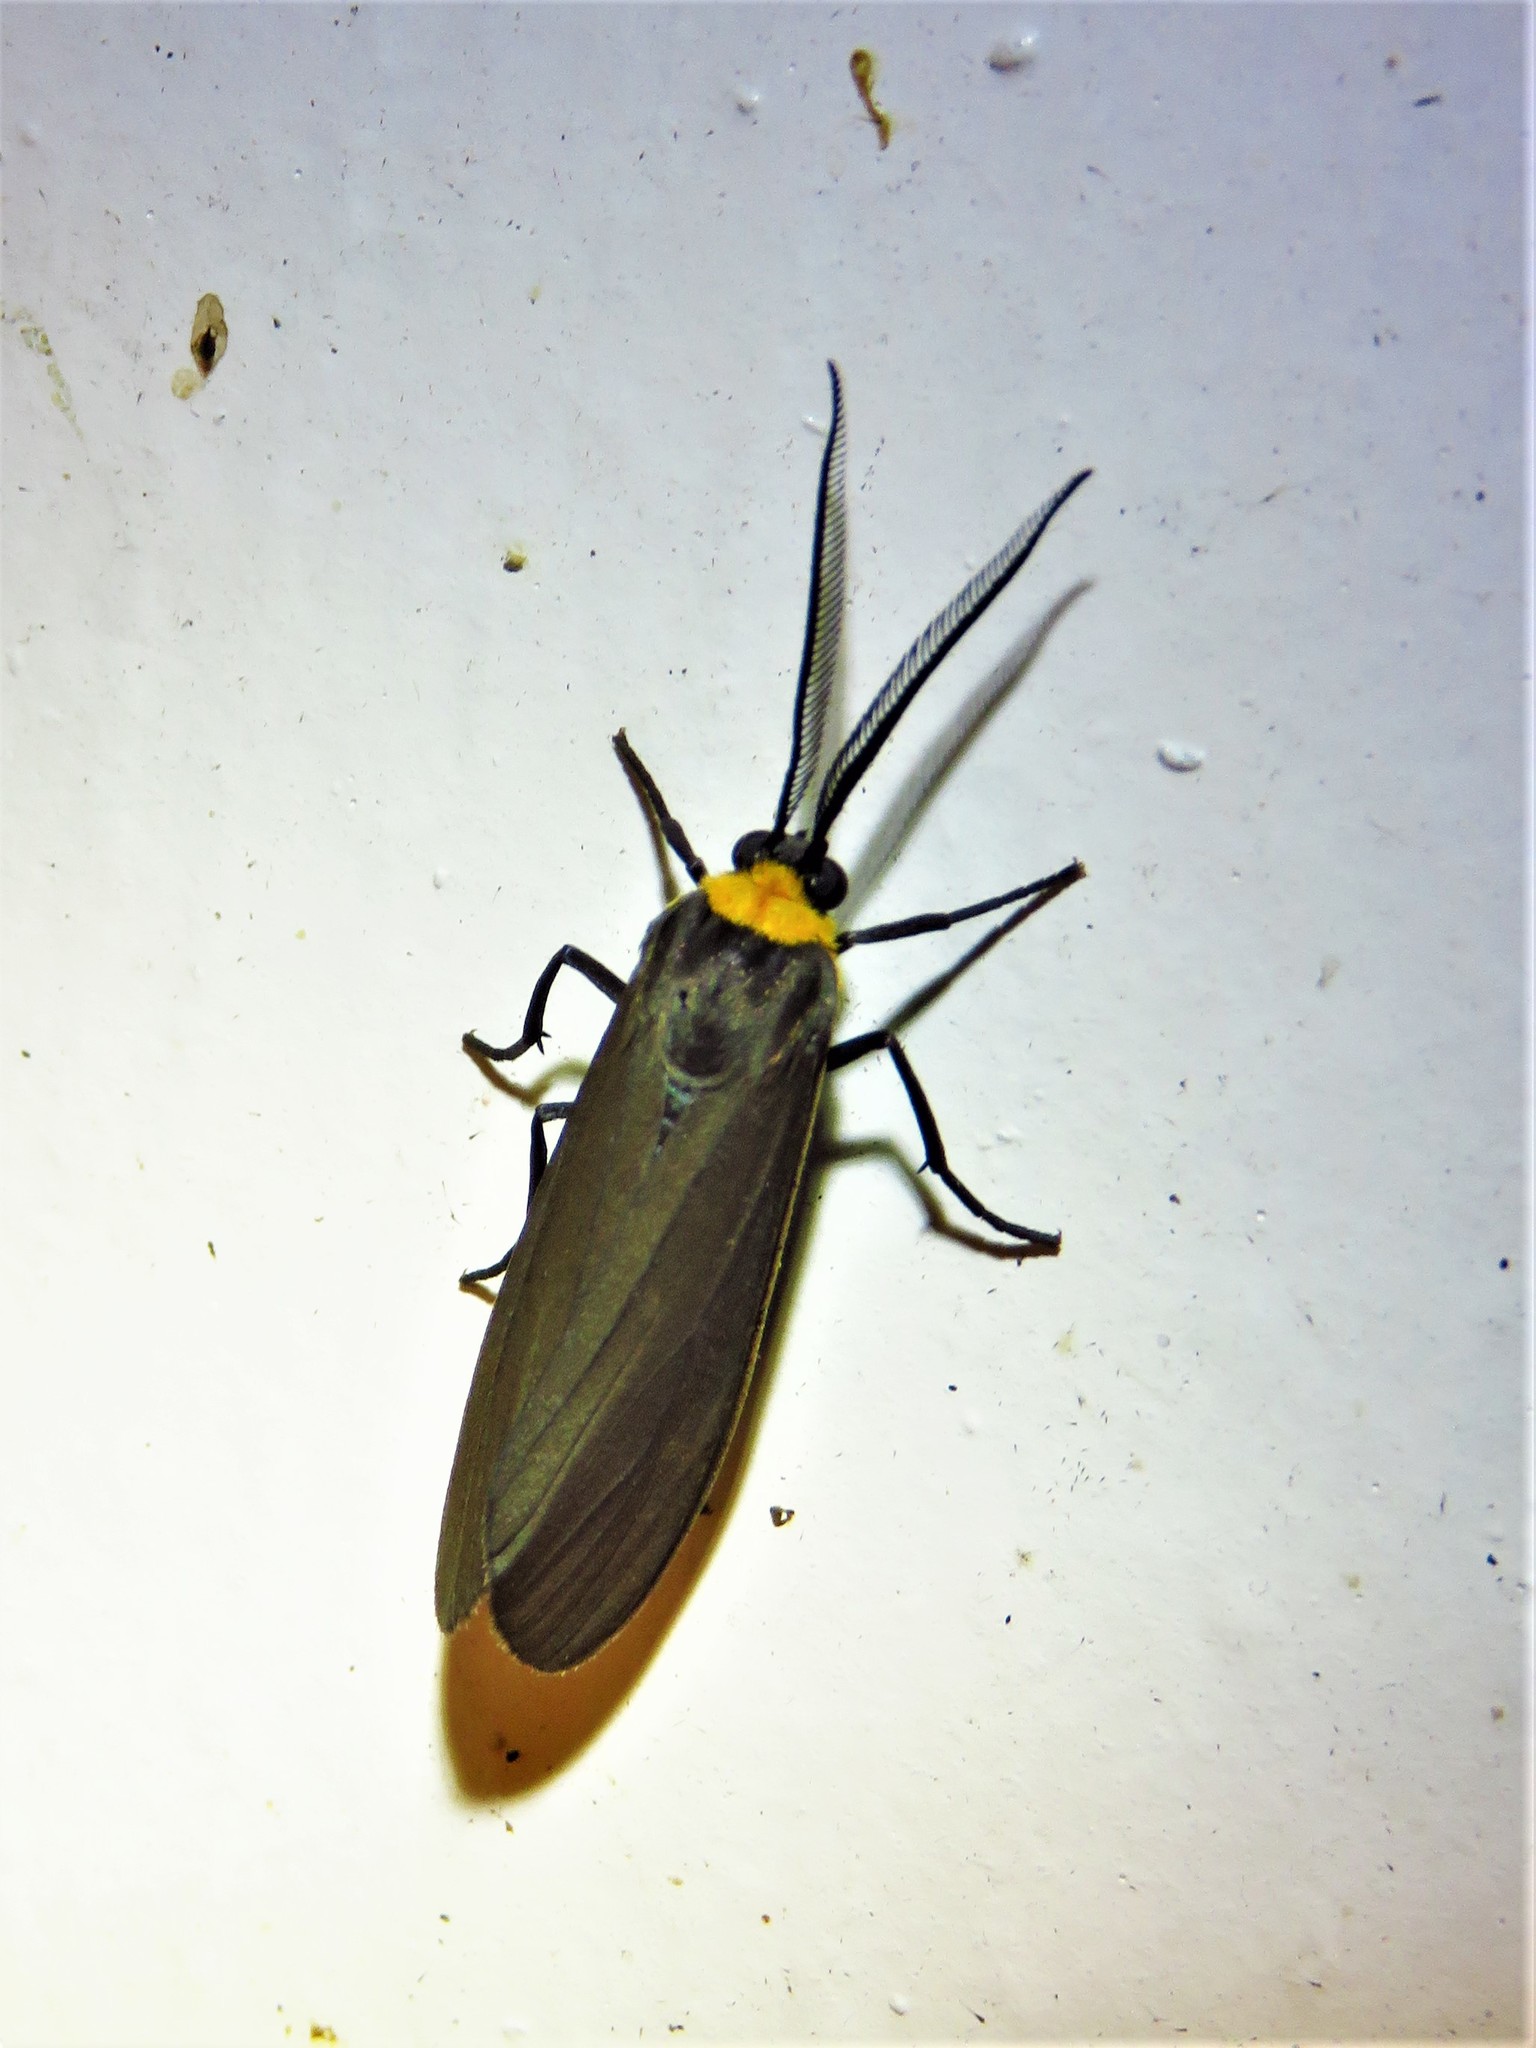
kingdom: Animalia
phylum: Arthropoda
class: Insecta
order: Lepidoptera
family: Erebidae
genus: Cisseps
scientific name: Cisseps fulvicollis
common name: Yellow-collared scape moth
